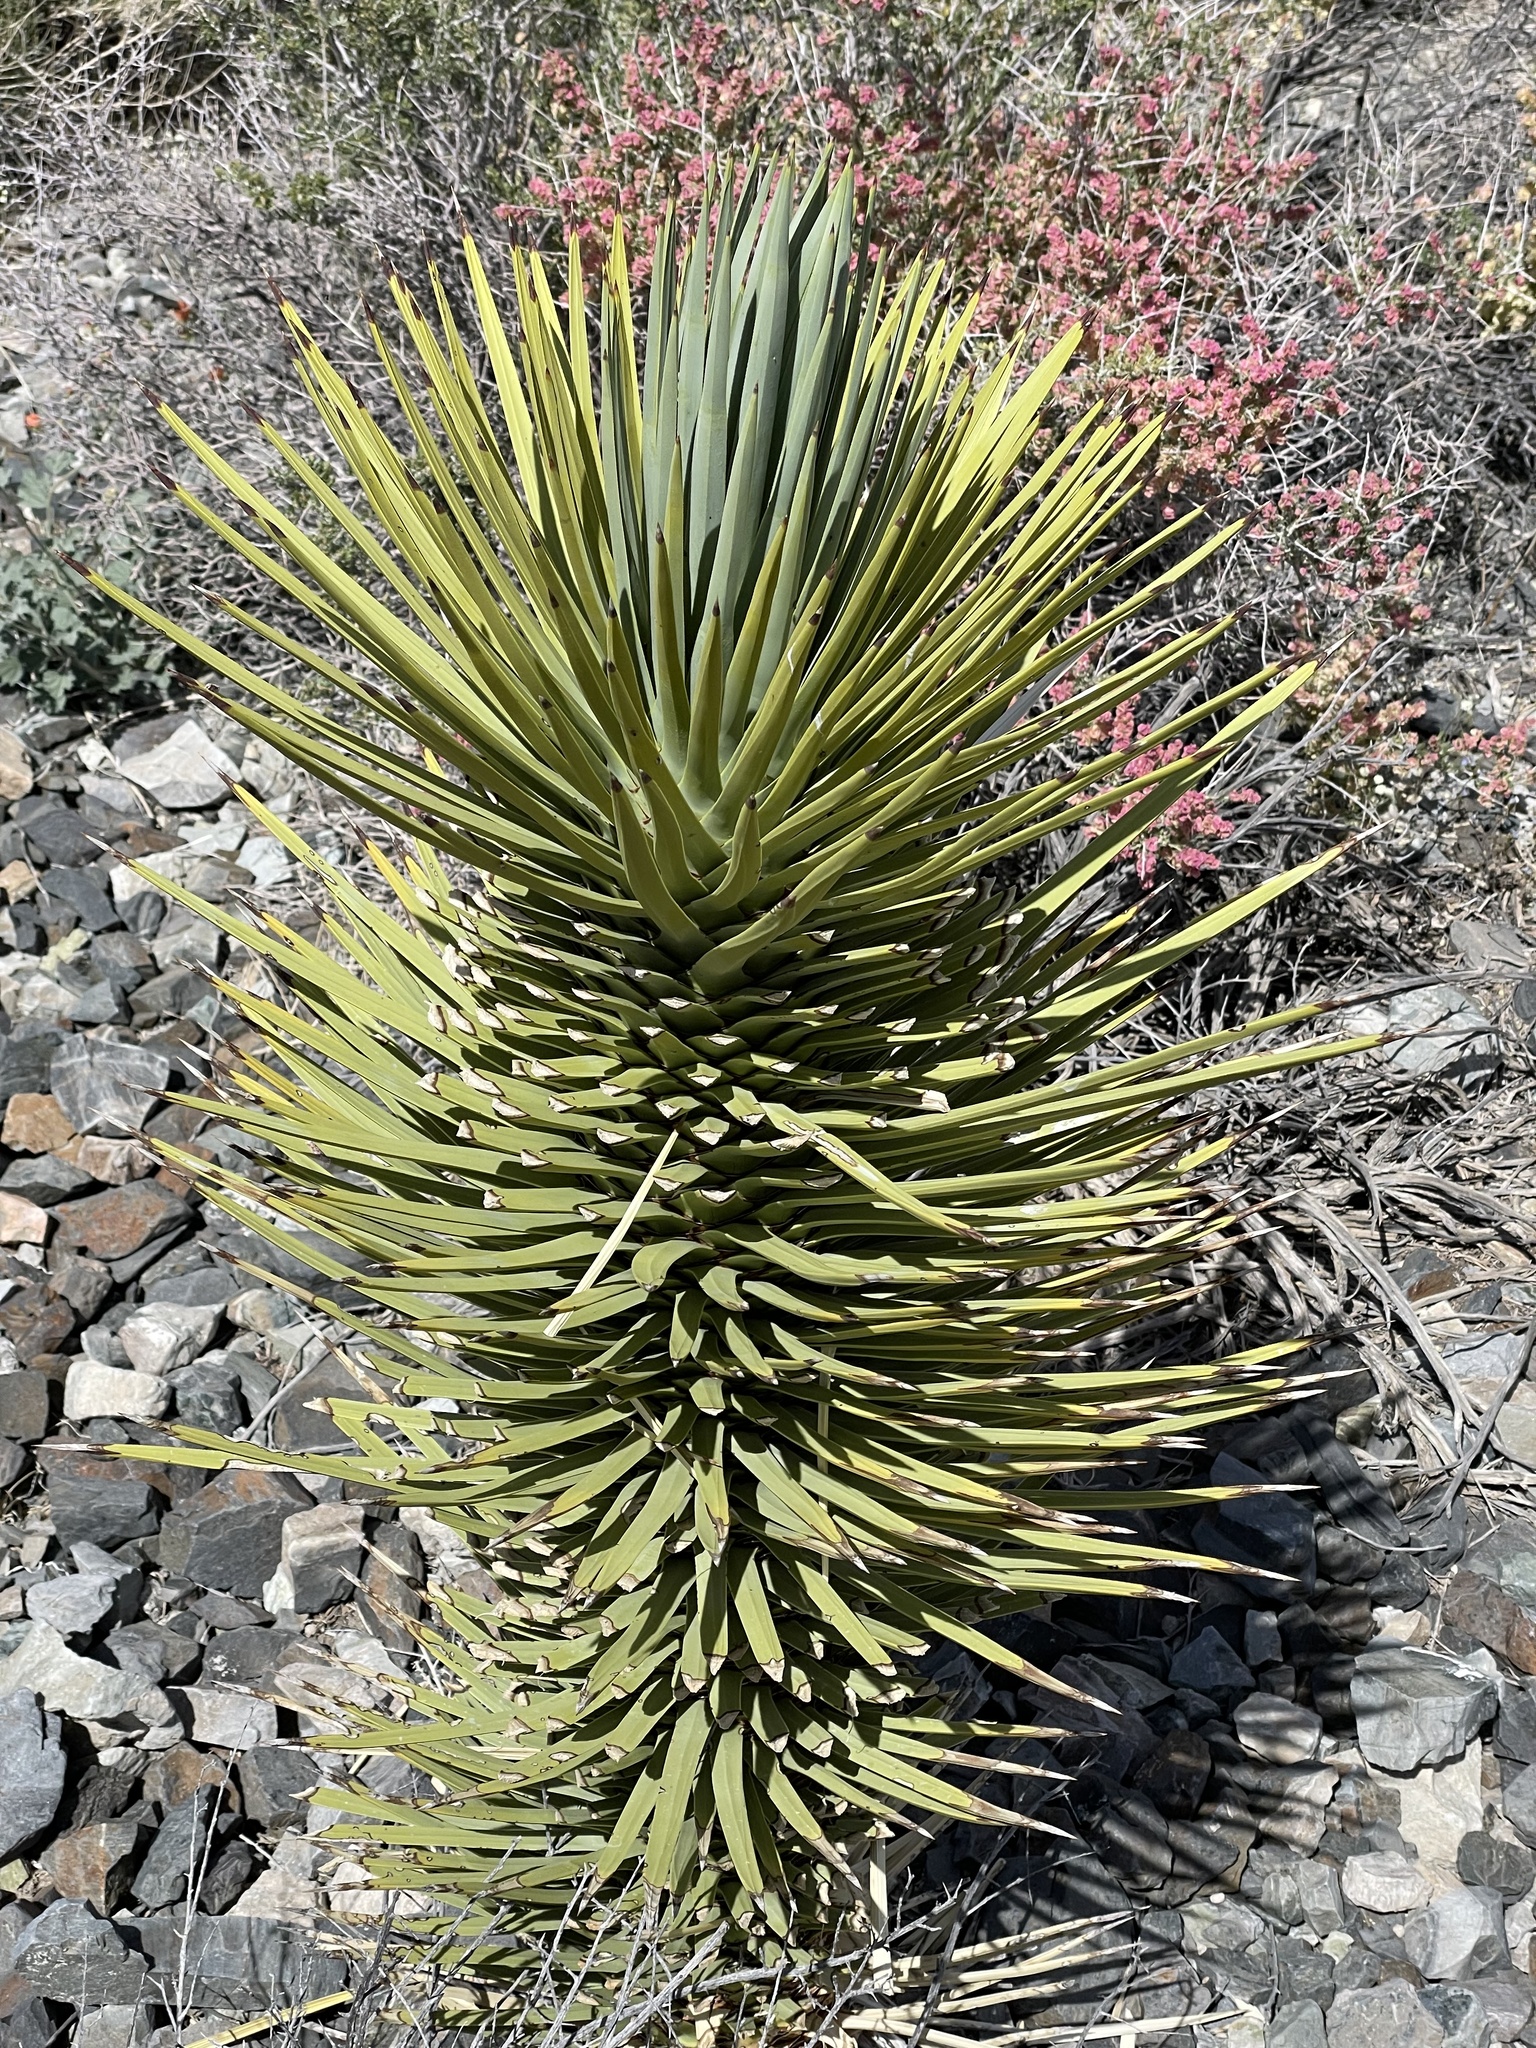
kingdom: Plantae
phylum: Tracheophyta
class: Liliopsida
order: Asparagales
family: Asparagaceae
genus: Yucca
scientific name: Yucca brevifolia
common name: Joshua tree
